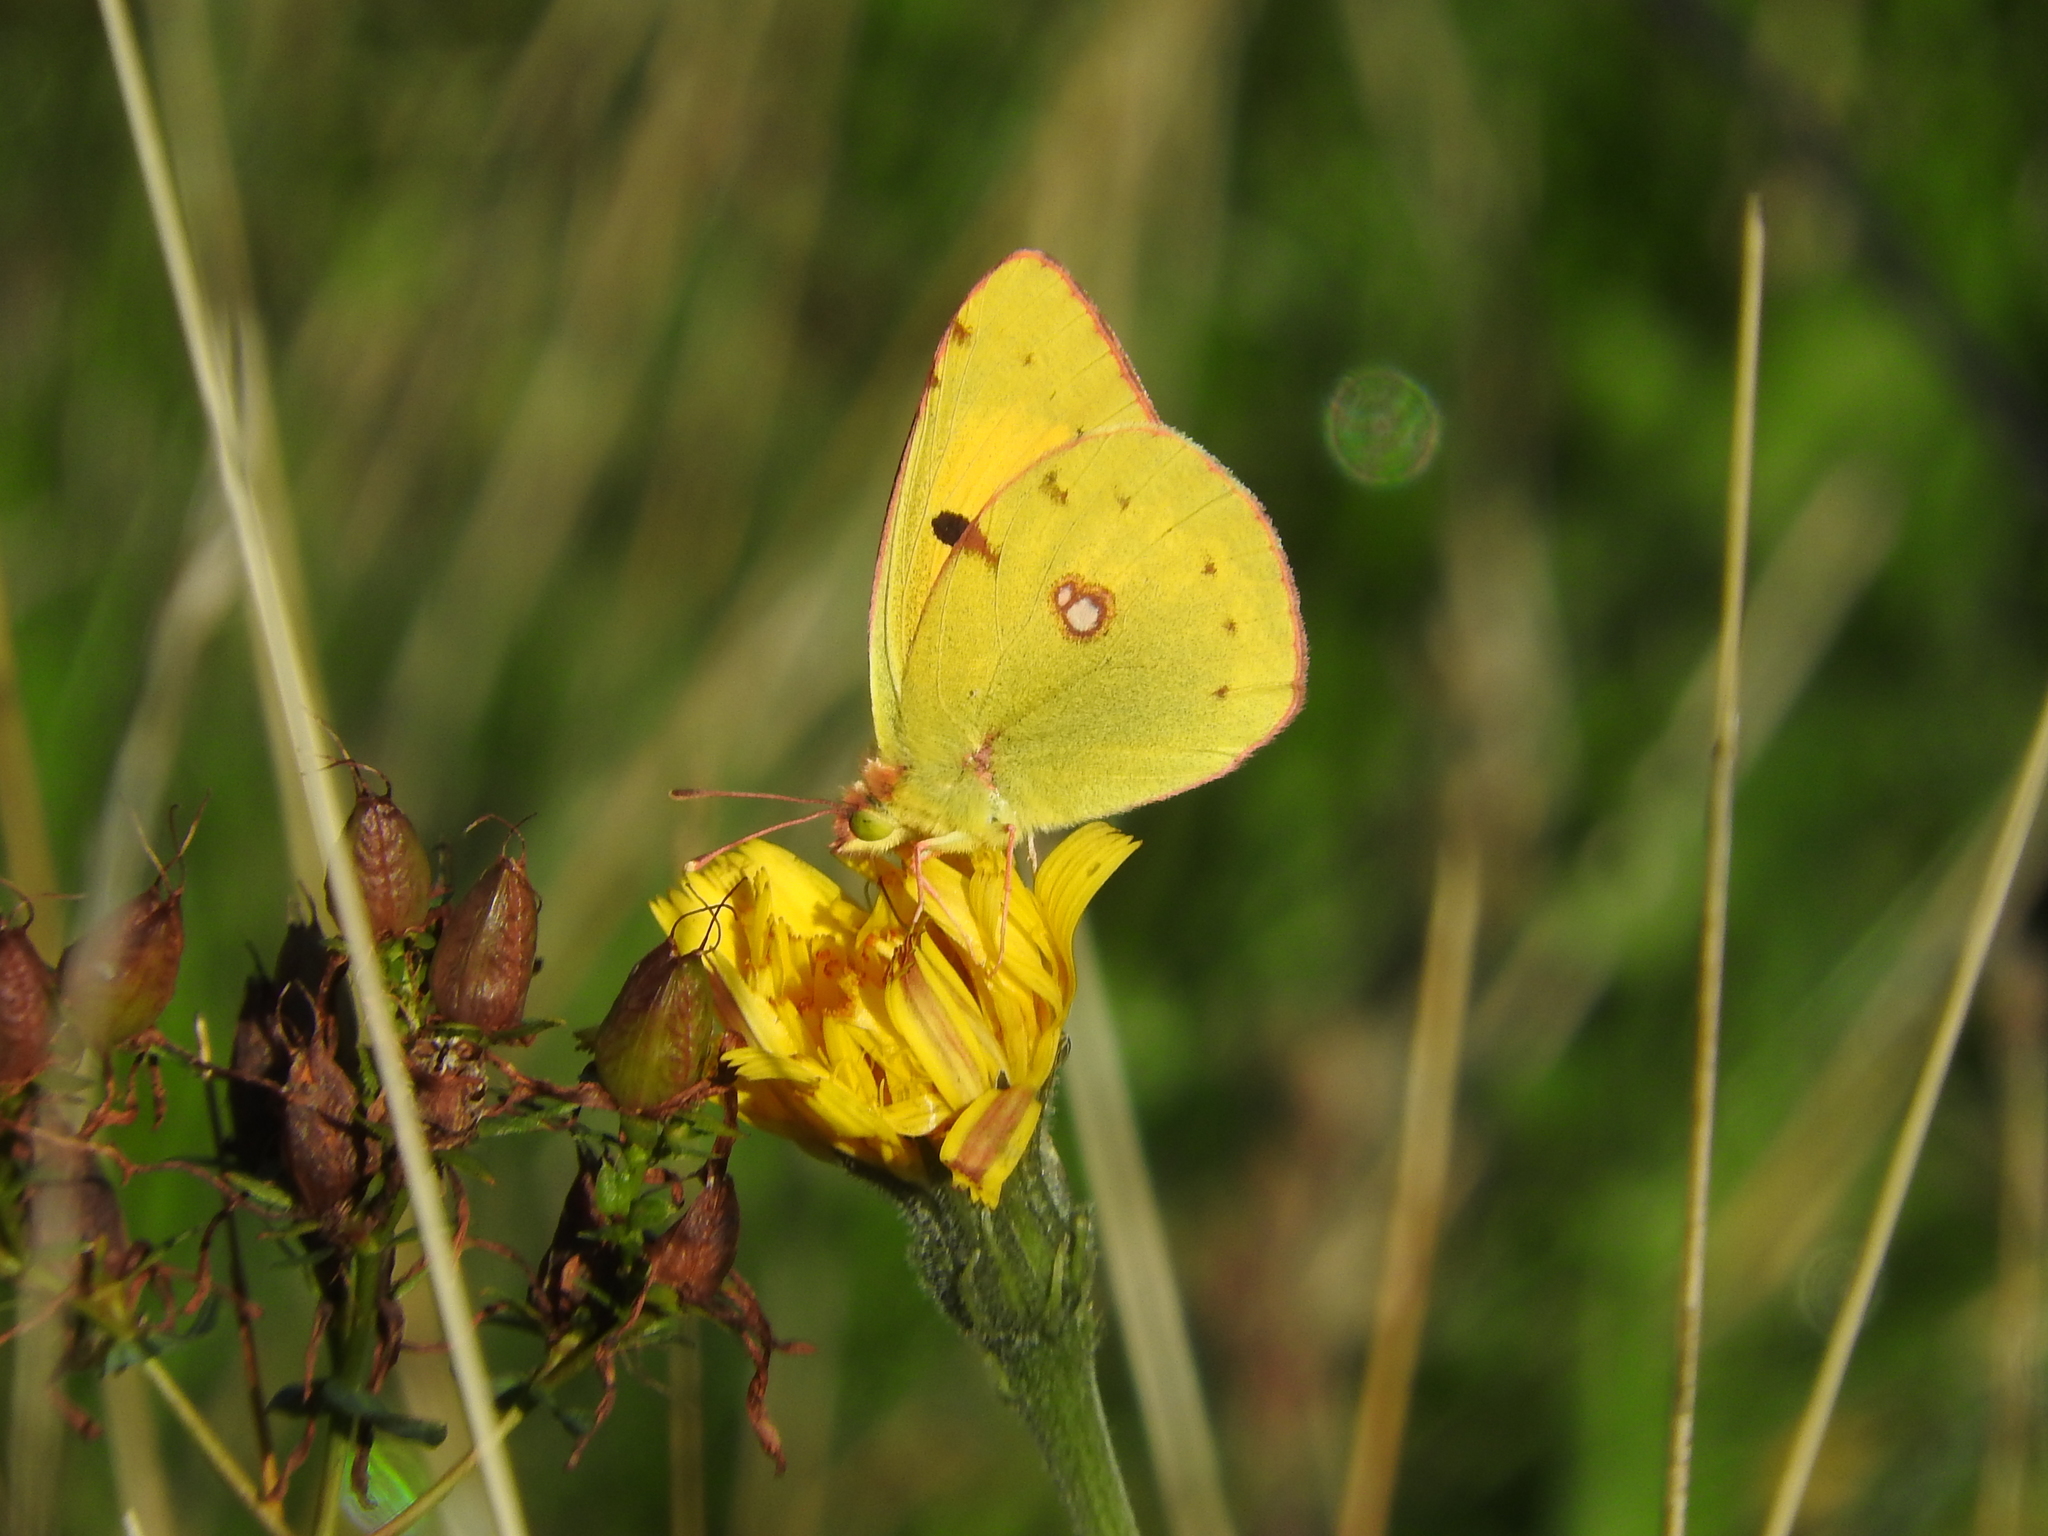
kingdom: Animalia
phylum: Arthropoda
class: Insecta
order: Lepidoptera
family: Pieridae
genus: Colias
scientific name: Colias croceus
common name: Clouded yellow
